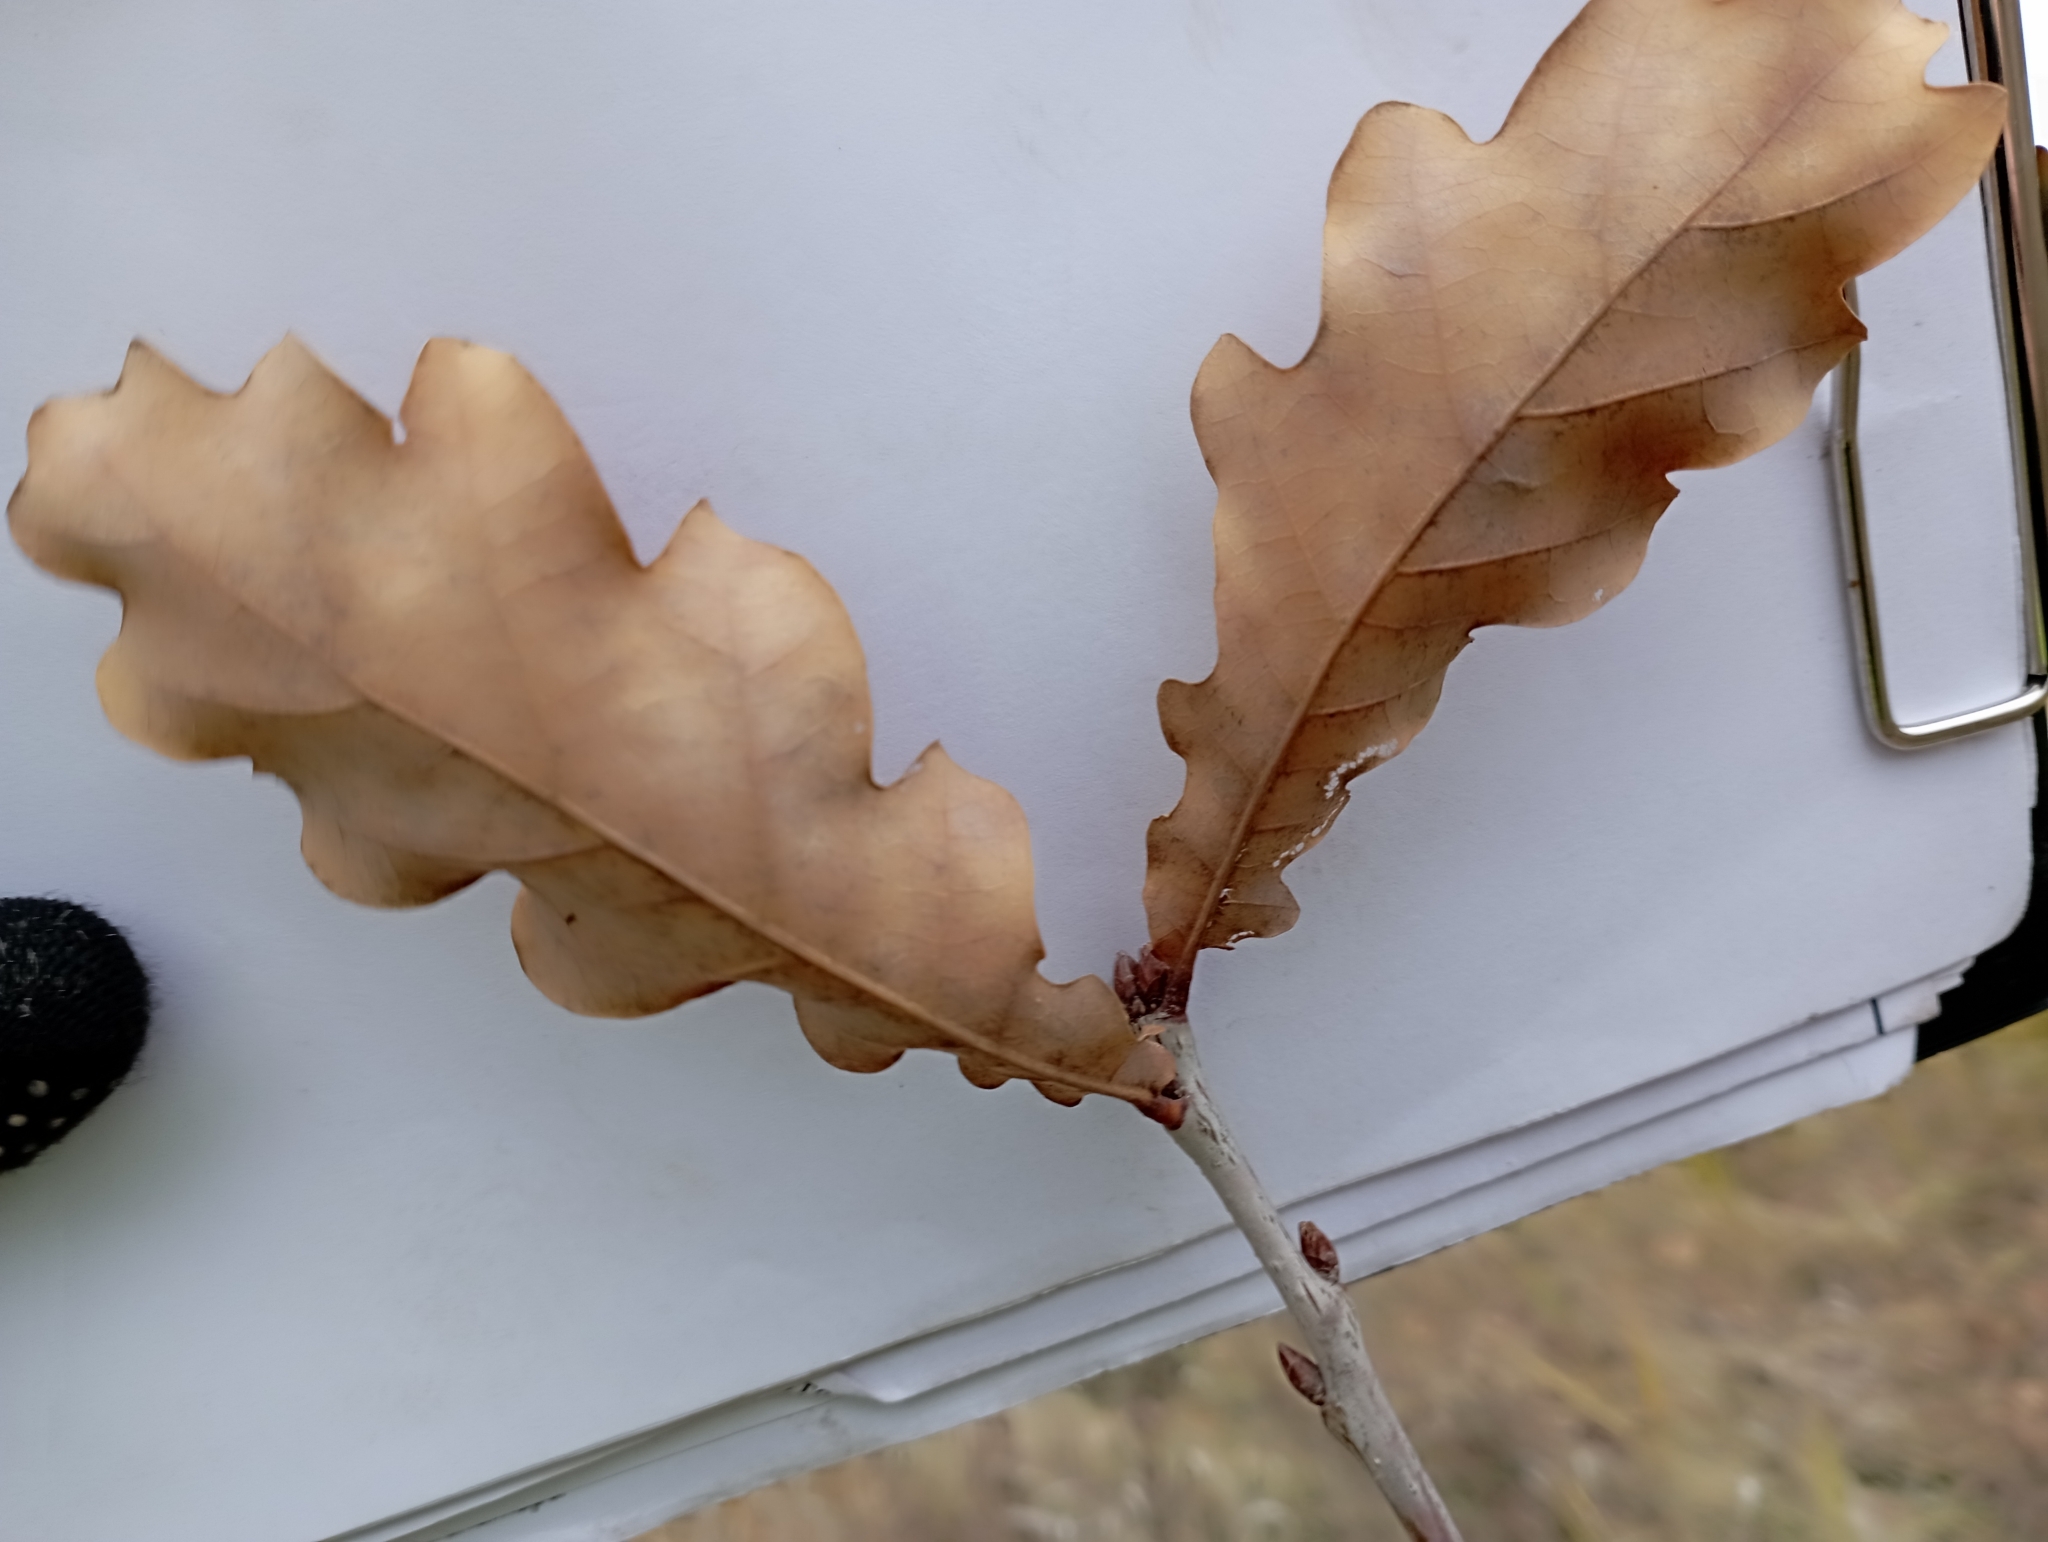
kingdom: Plantae
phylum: Tracheophyta
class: Magnoliopsida
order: Fagales
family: Fagaceae
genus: Quercus
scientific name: Quercus robur
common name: Pedunculate oak
